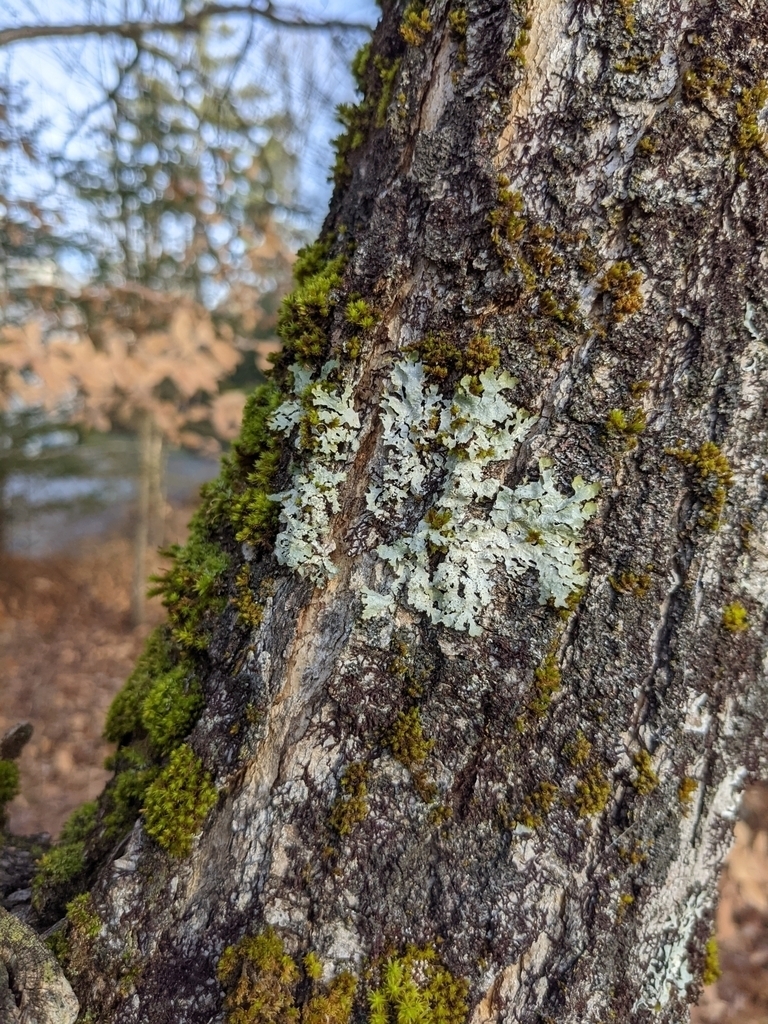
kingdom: Plantae
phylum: Bryophyta
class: Bryopsida
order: Orthotrichales
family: Orthotrichaceae
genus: Ulota
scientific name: Ulota crispa
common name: Crisped pincushion moss
